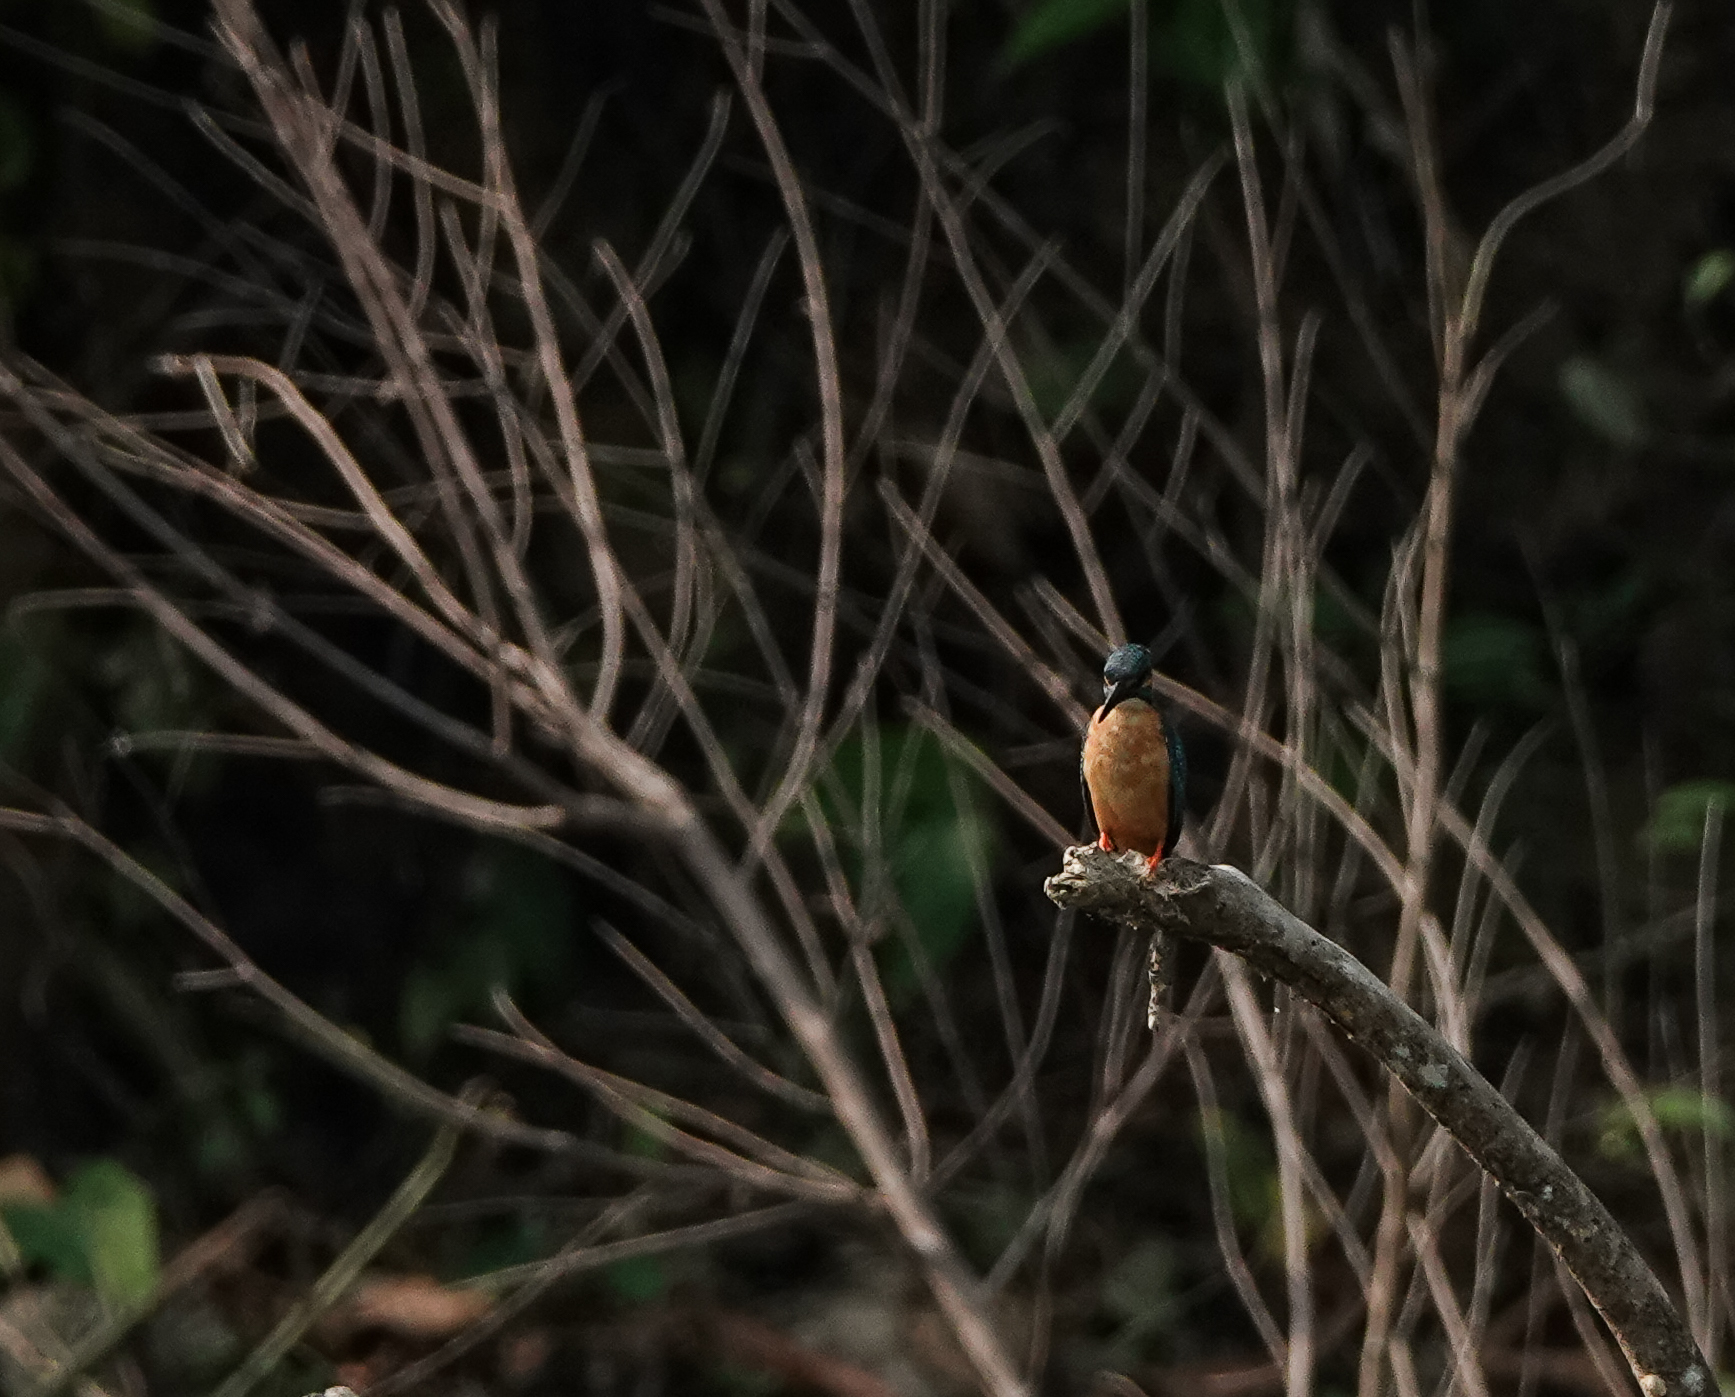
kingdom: Animalia
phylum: Chordata
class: Aves
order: Coraciiformes
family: Alcedinidae
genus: Alcedo
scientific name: Alcedo atthis
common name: Common kingfisher
